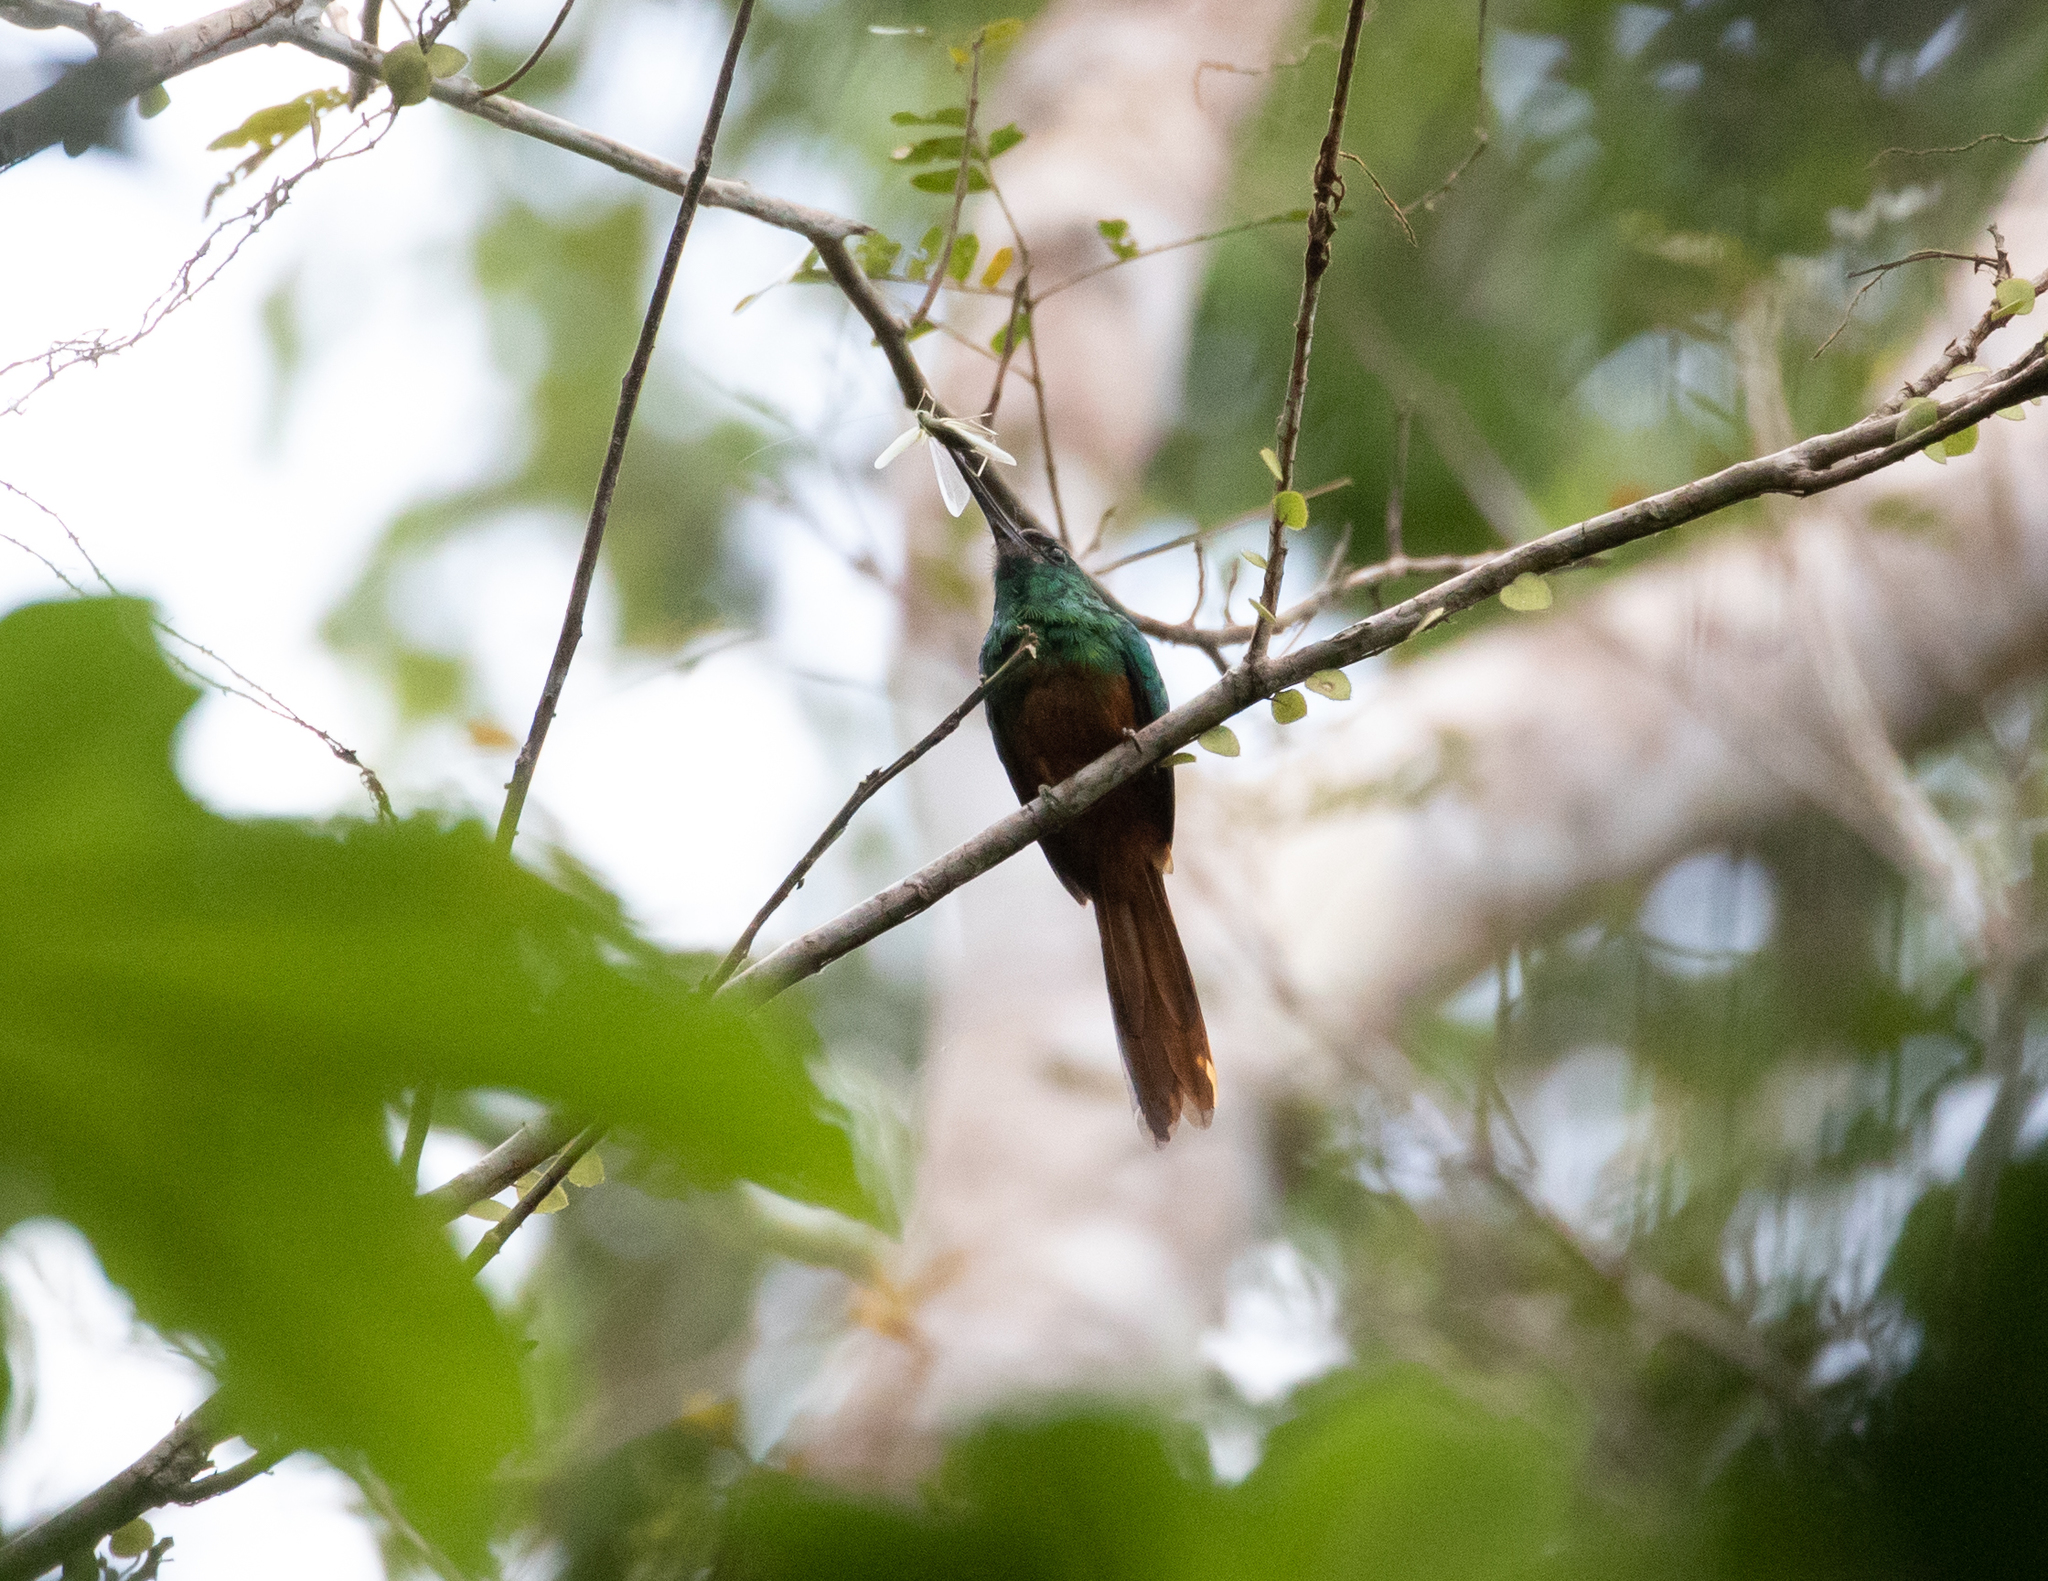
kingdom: Animalia
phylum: Chordata
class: Aves
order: Piciformes
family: Galbulidae
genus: Galbula
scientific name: Galbula cyanescens
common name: Bluish-fronted jacamar
